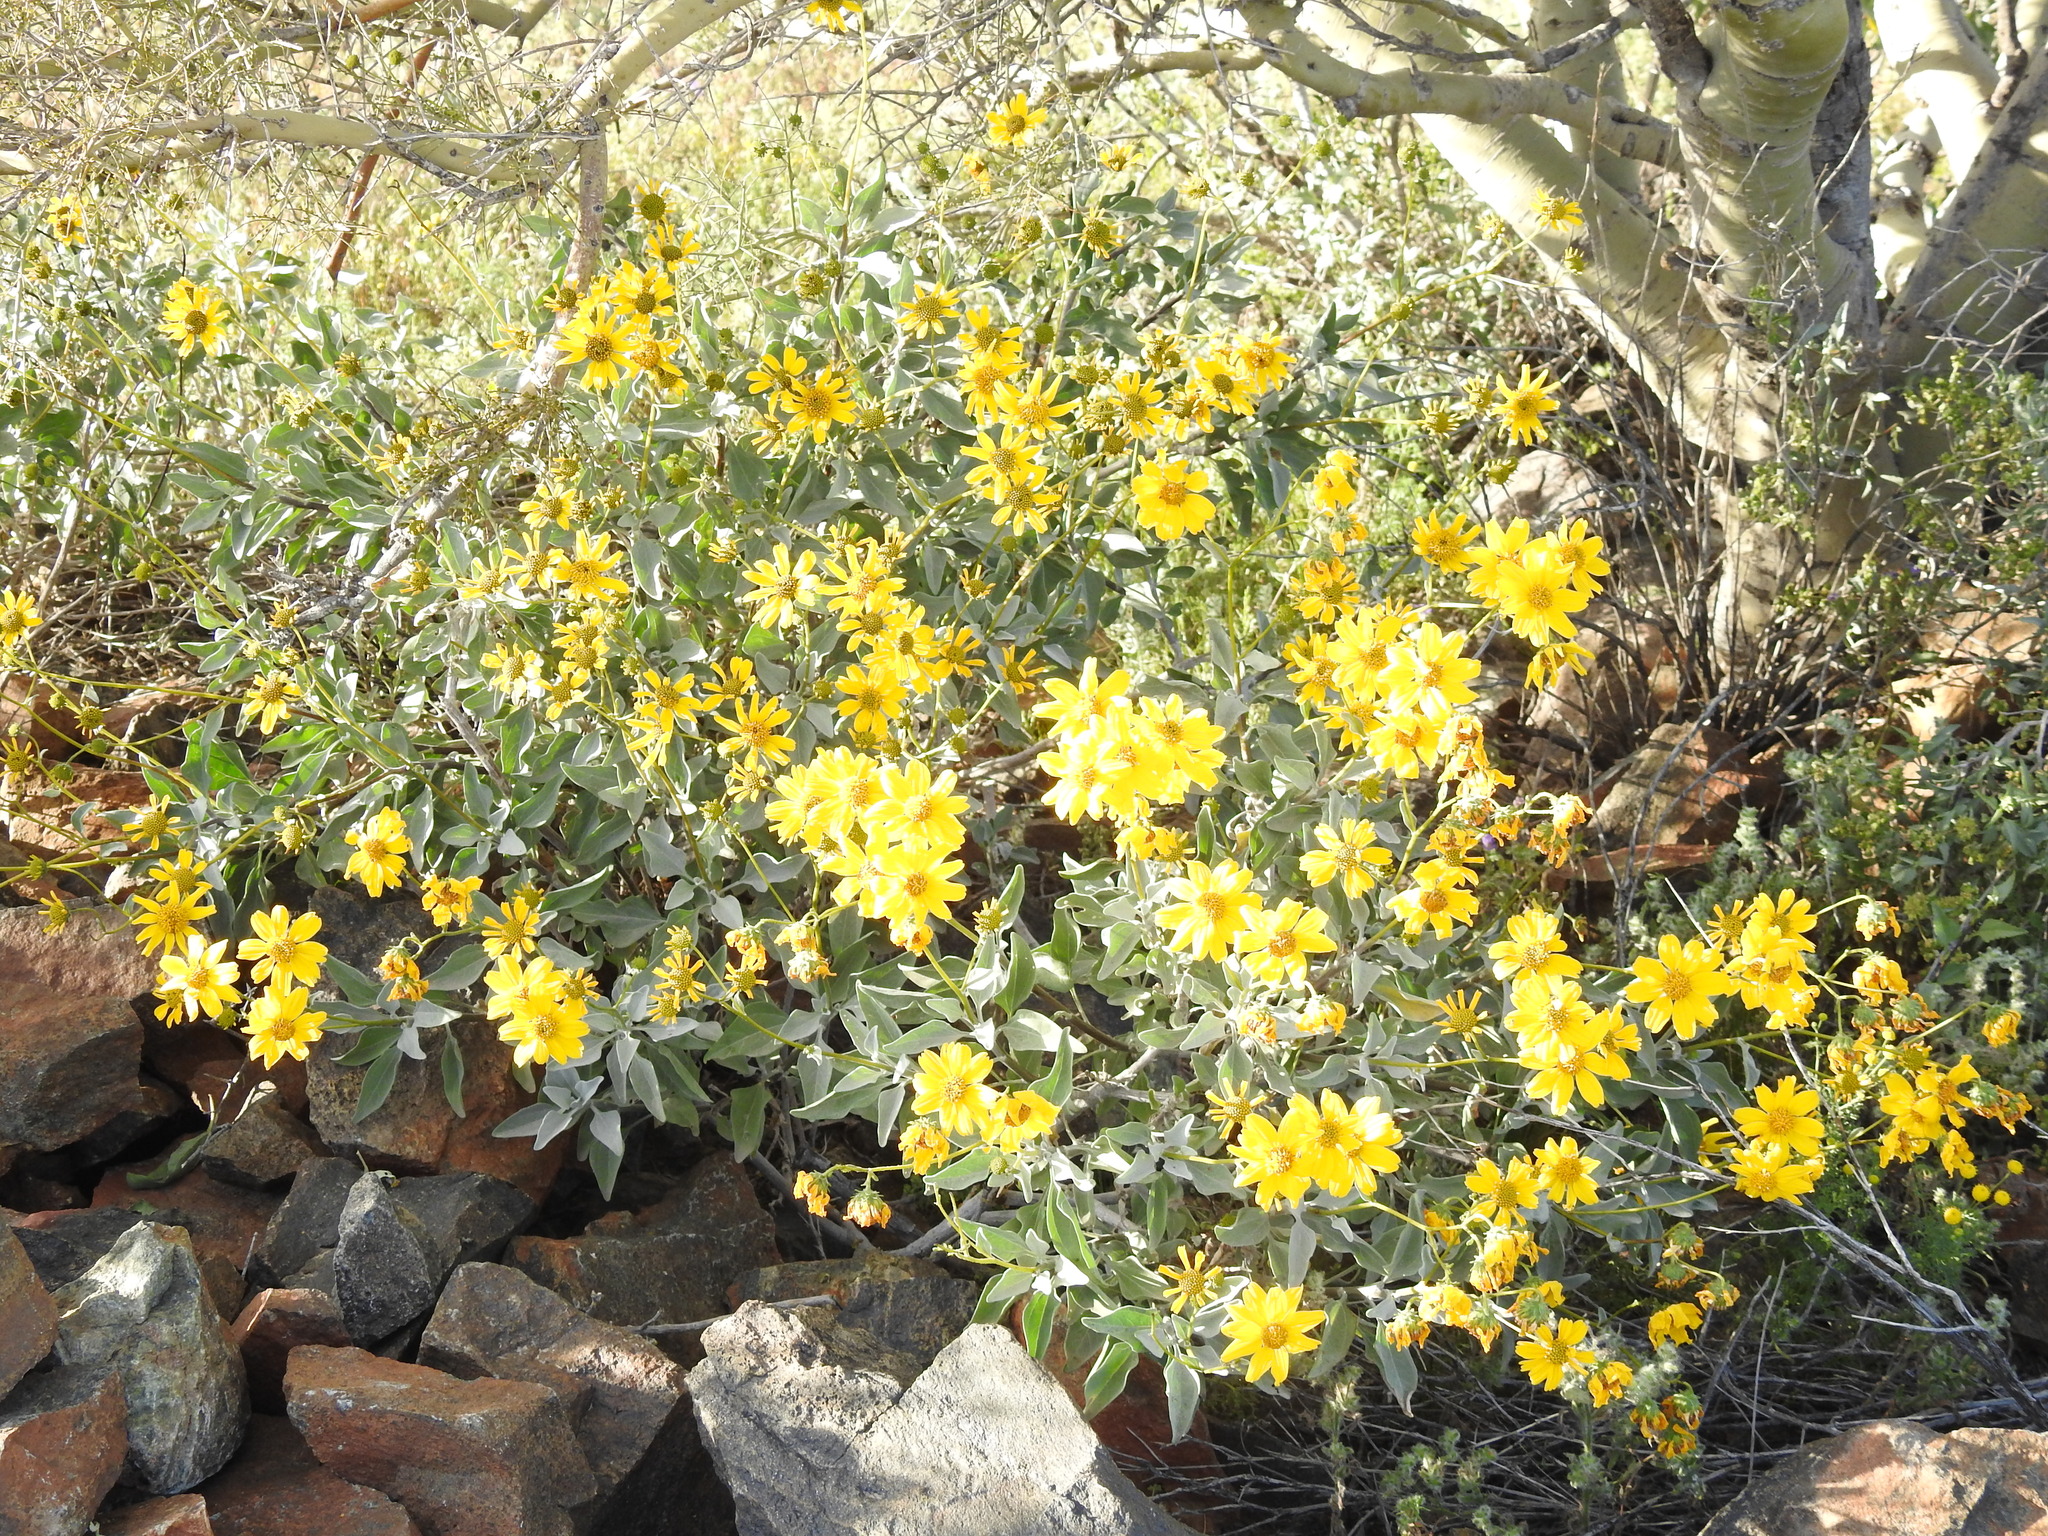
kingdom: Plantae
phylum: Tracheophyta
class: Magnoliopsida
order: Asterales
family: Asteraceae
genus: Encelia
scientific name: Encelia farinosa
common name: Brittlebush
